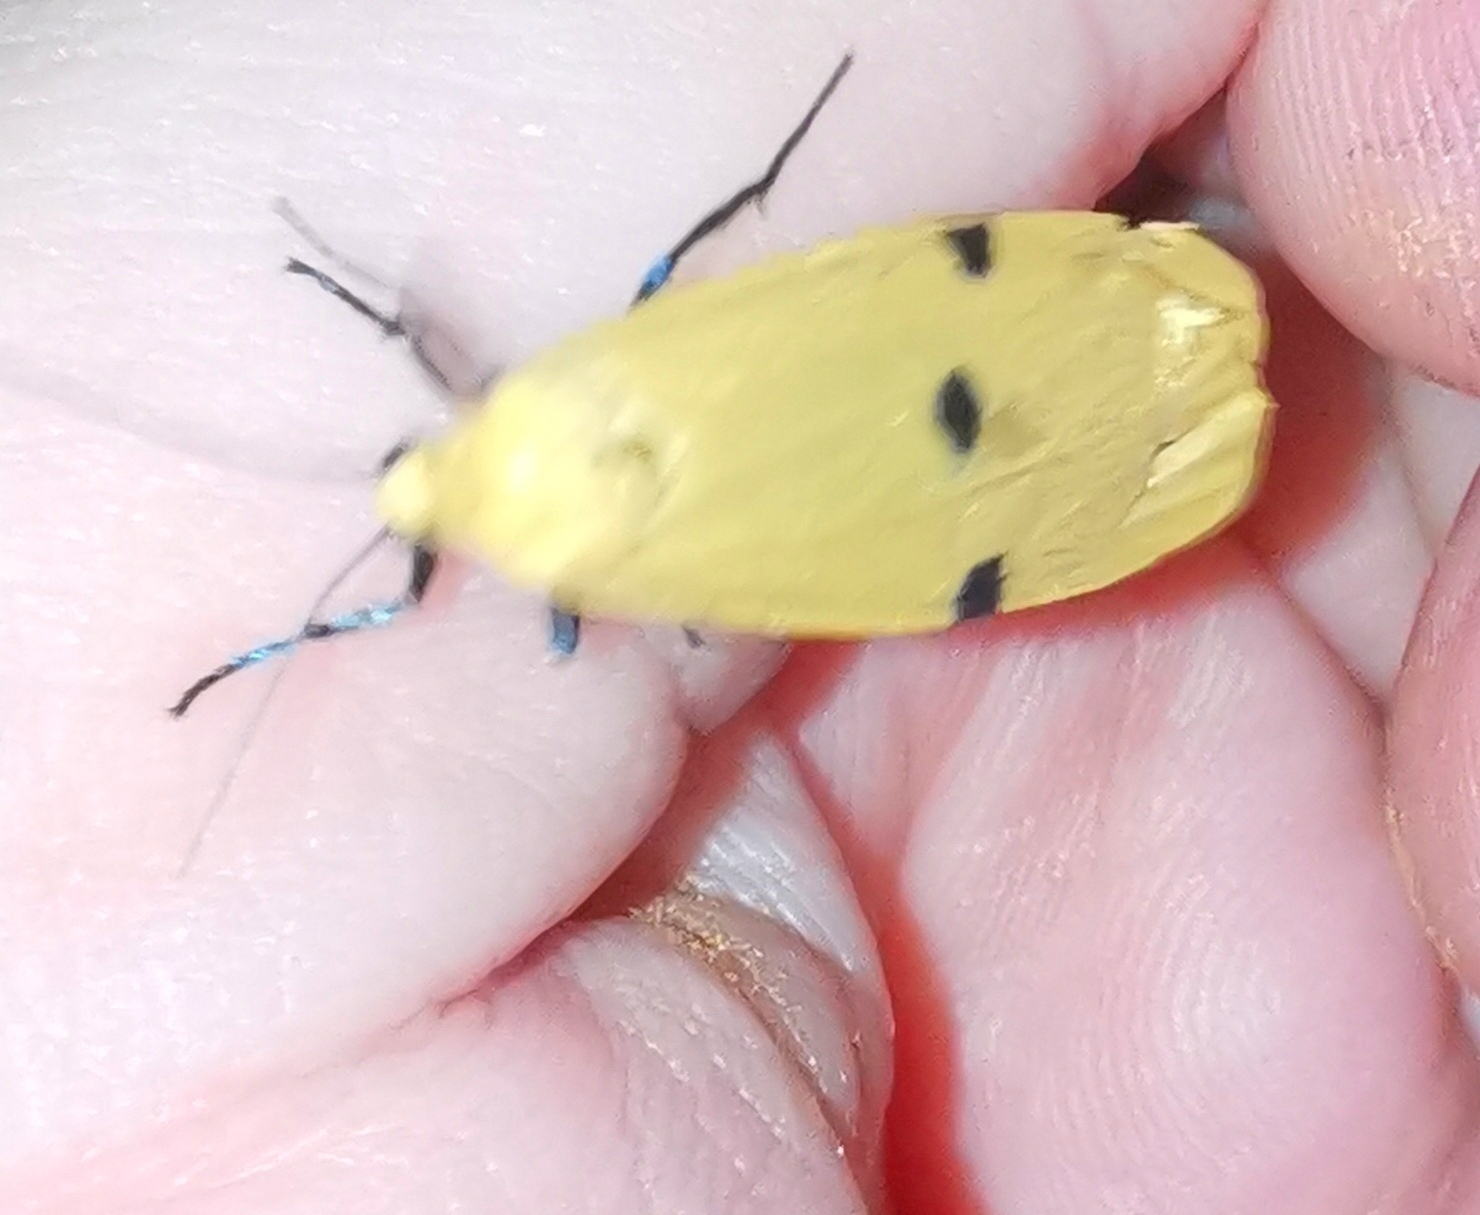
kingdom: Animalia
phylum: Arthropoda
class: Insecta
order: Lepidoptera
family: Erebidae
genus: Lithosia
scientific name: Lithosia quadra
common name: Four-spotted footman
